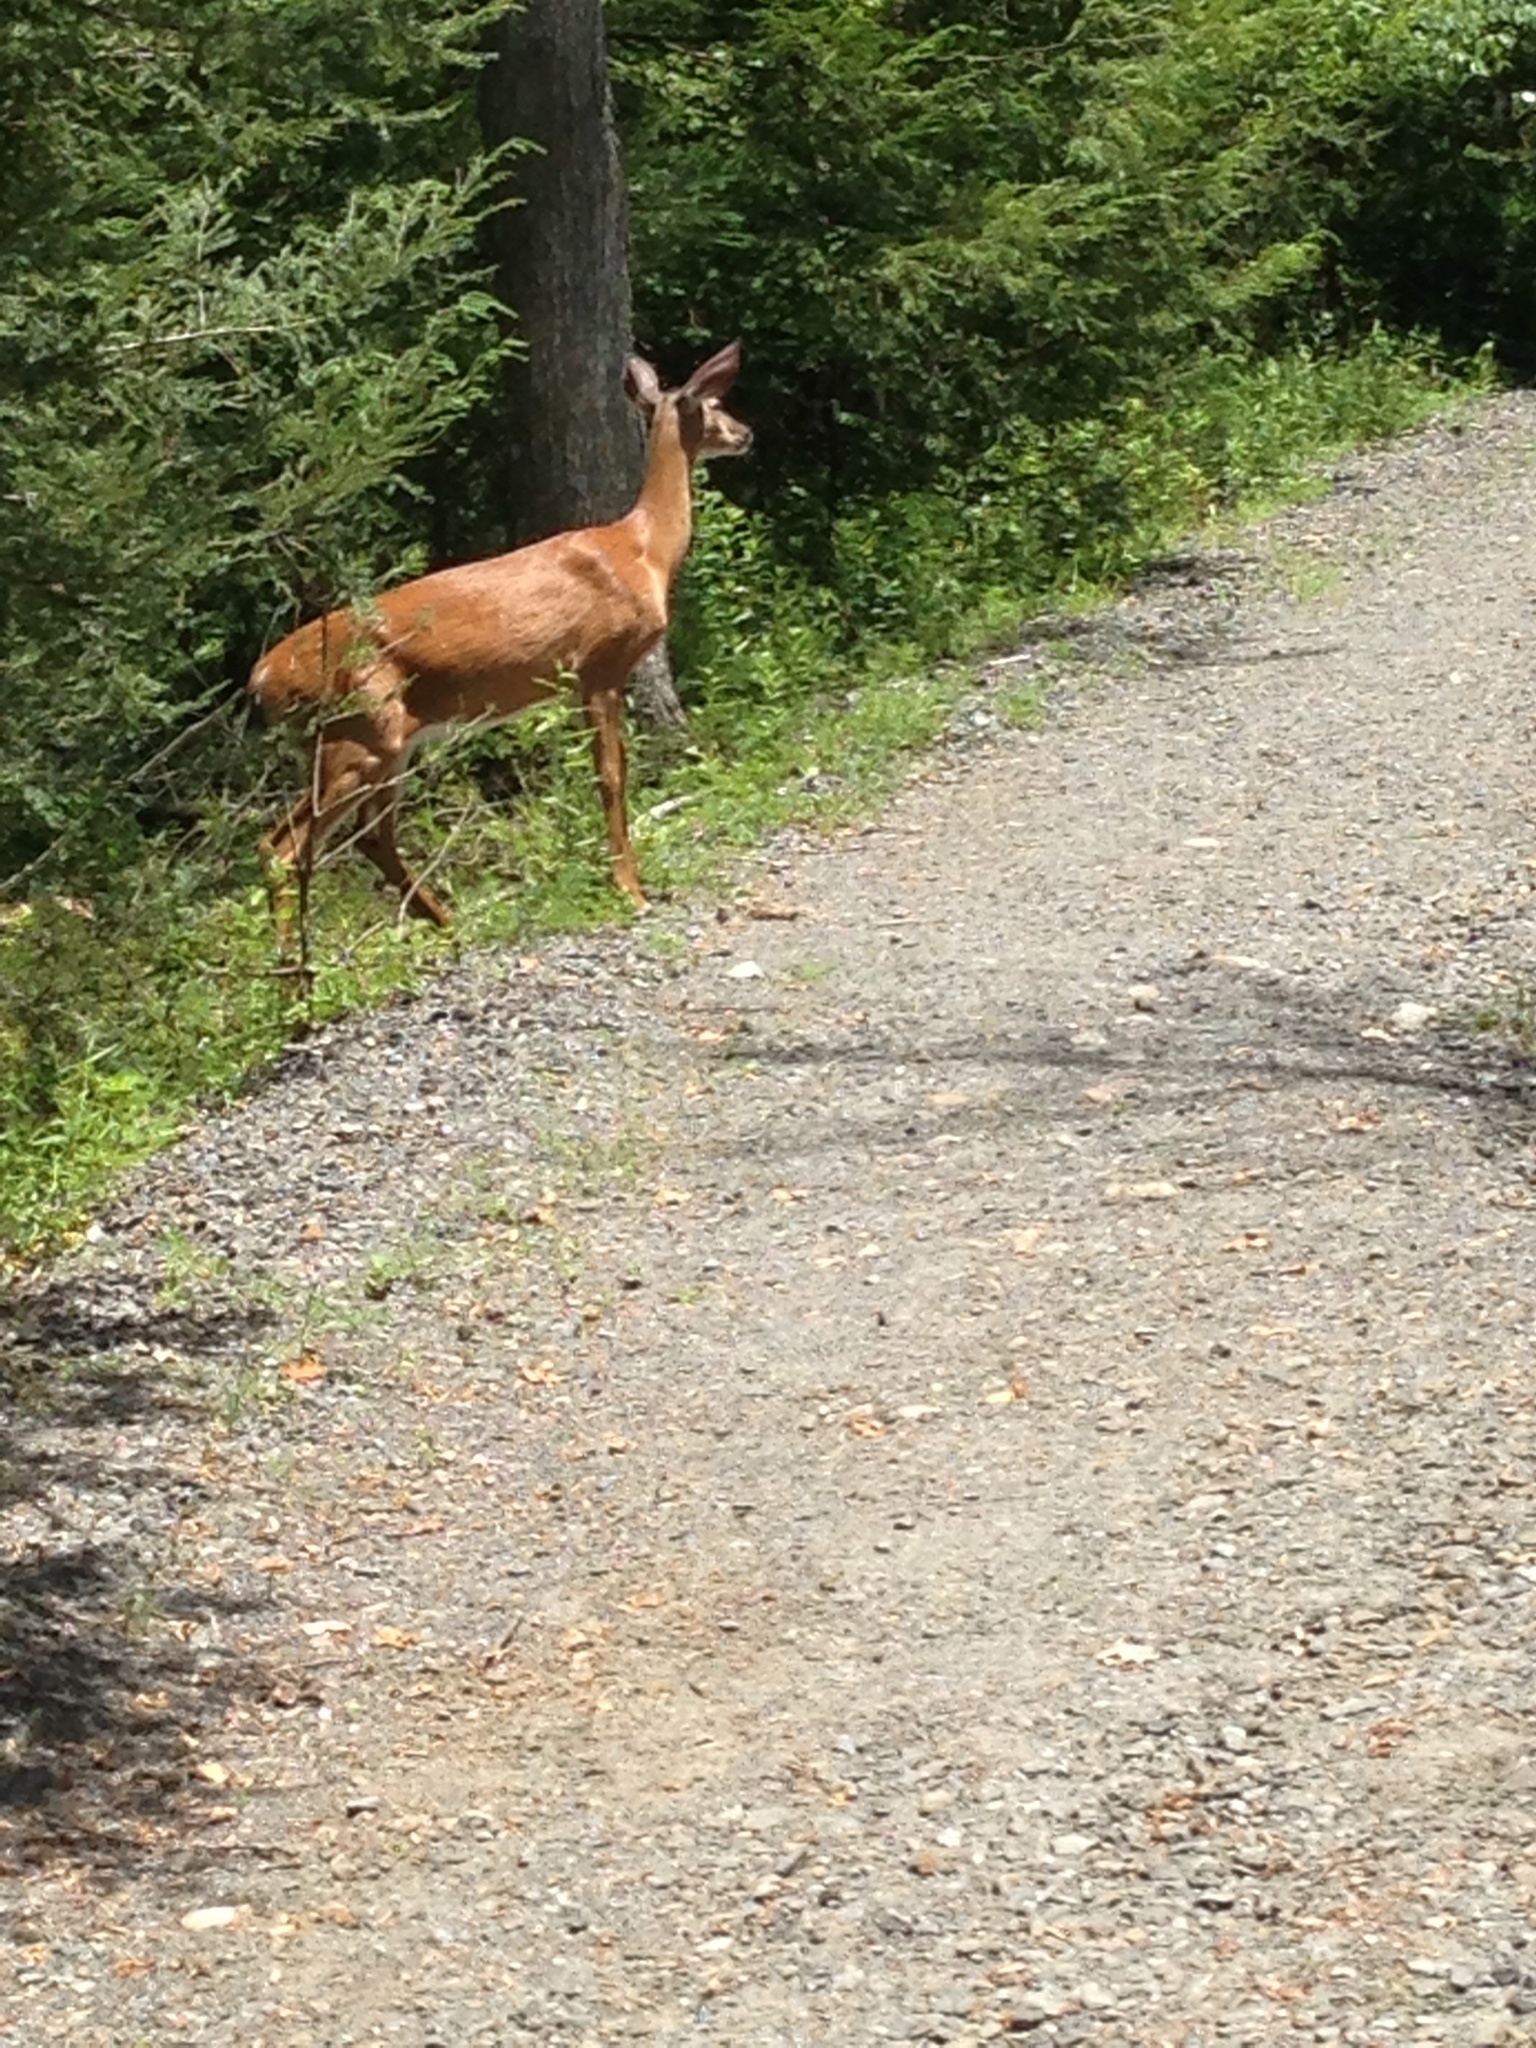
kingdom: Animalia
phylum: Chordata
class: Mammalia
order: Artiodactyla
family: Cervidae
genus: Odocoileus
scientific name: Odocoileus virginianus
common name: White-tailed deer
